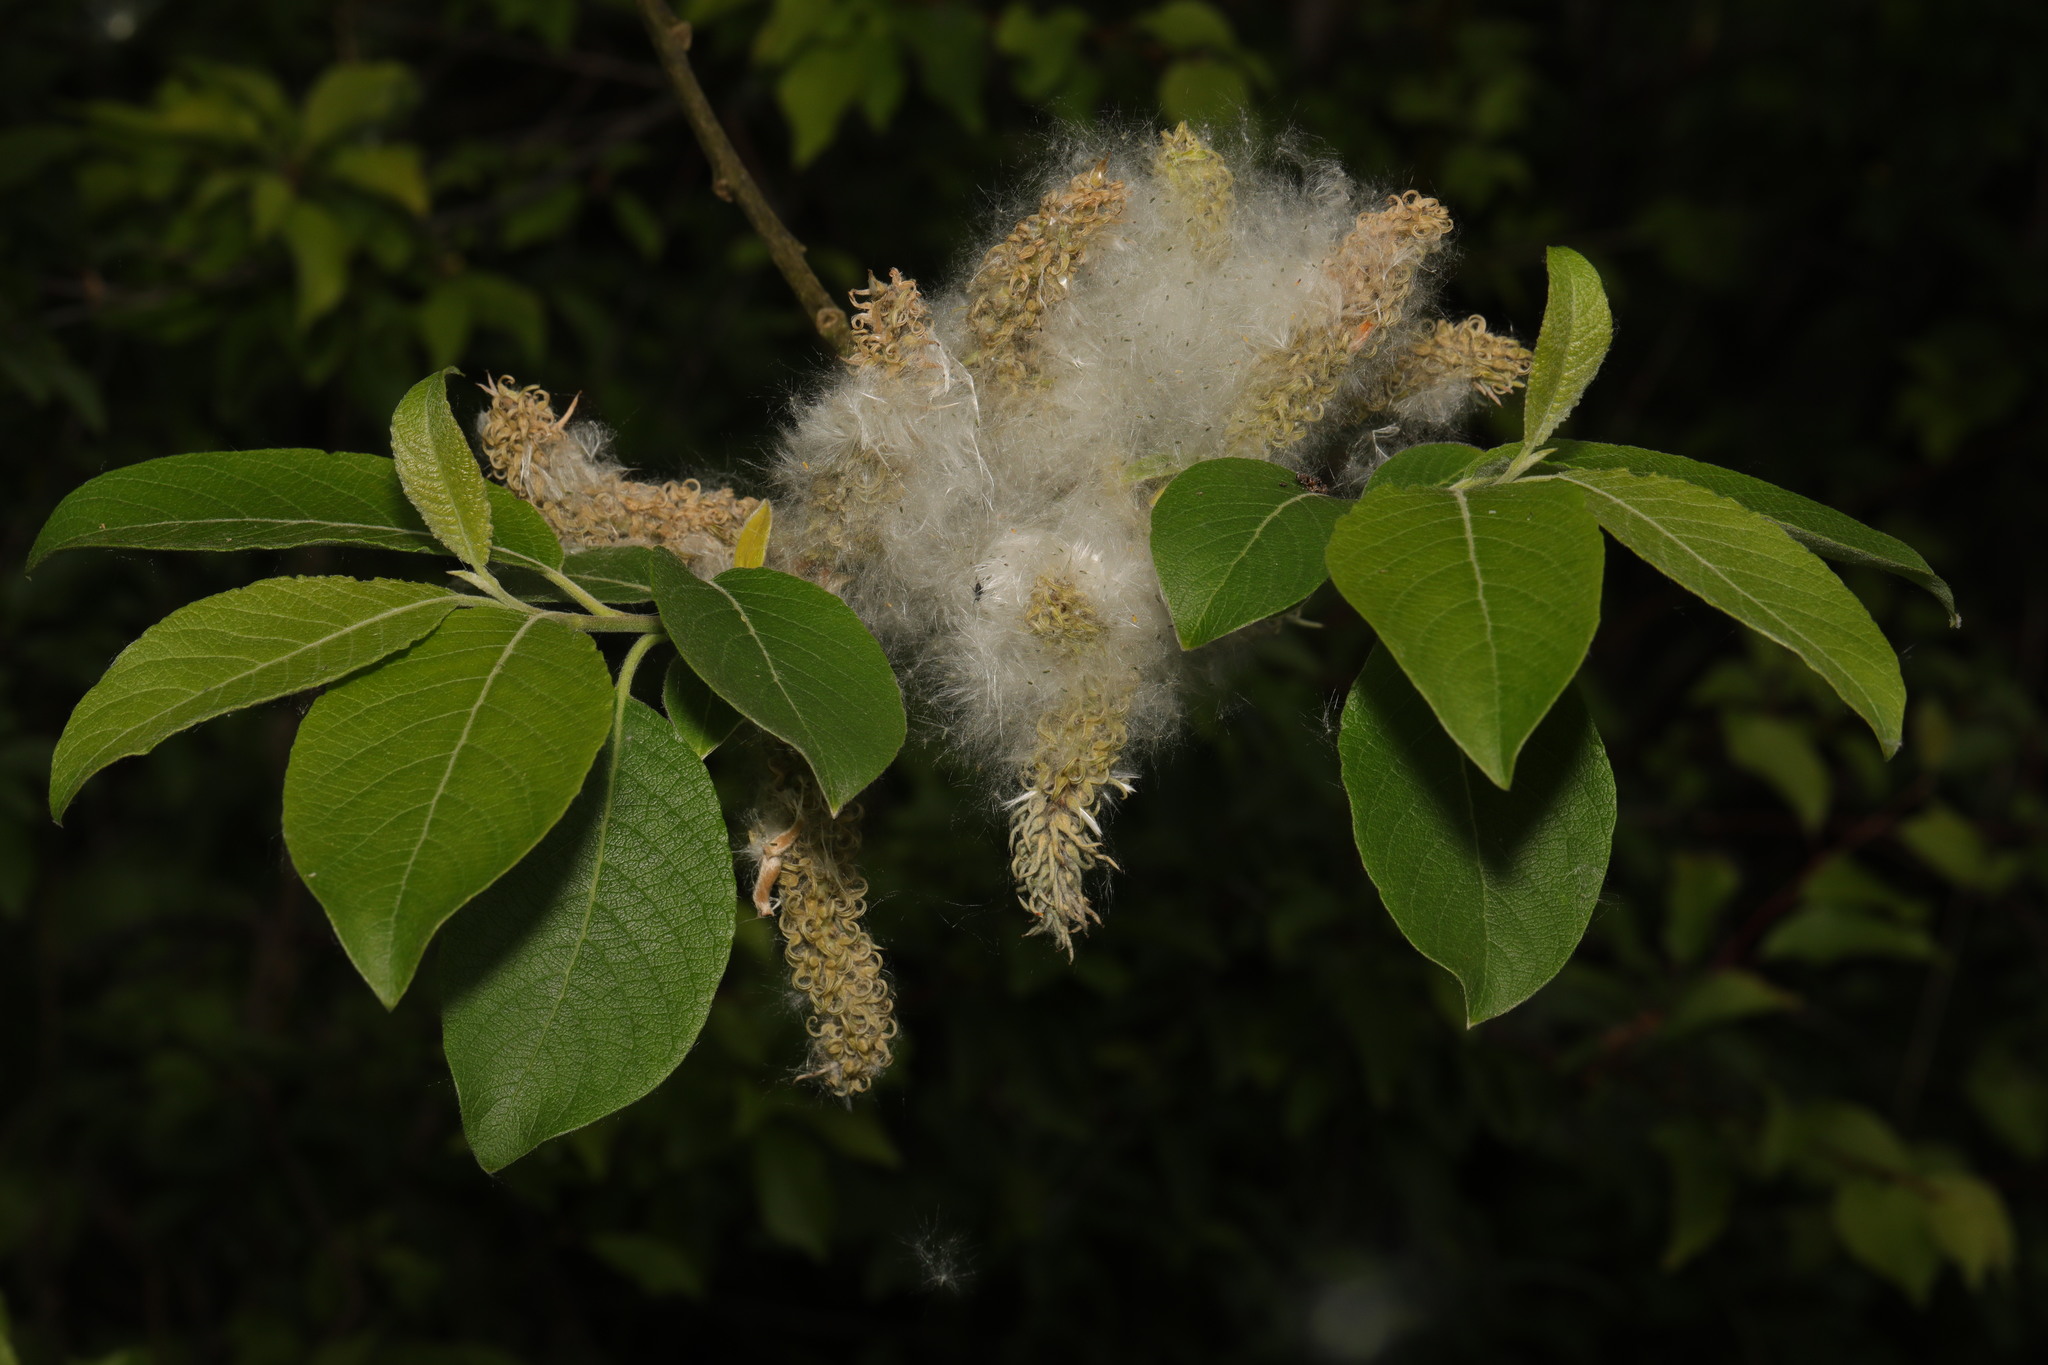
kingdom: Plantae
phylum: Tracheophyta
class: Magnoliopsida
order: Malpighiales
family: Salicaceae
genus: Salix
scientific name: Salix caprea
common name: Goat willow
